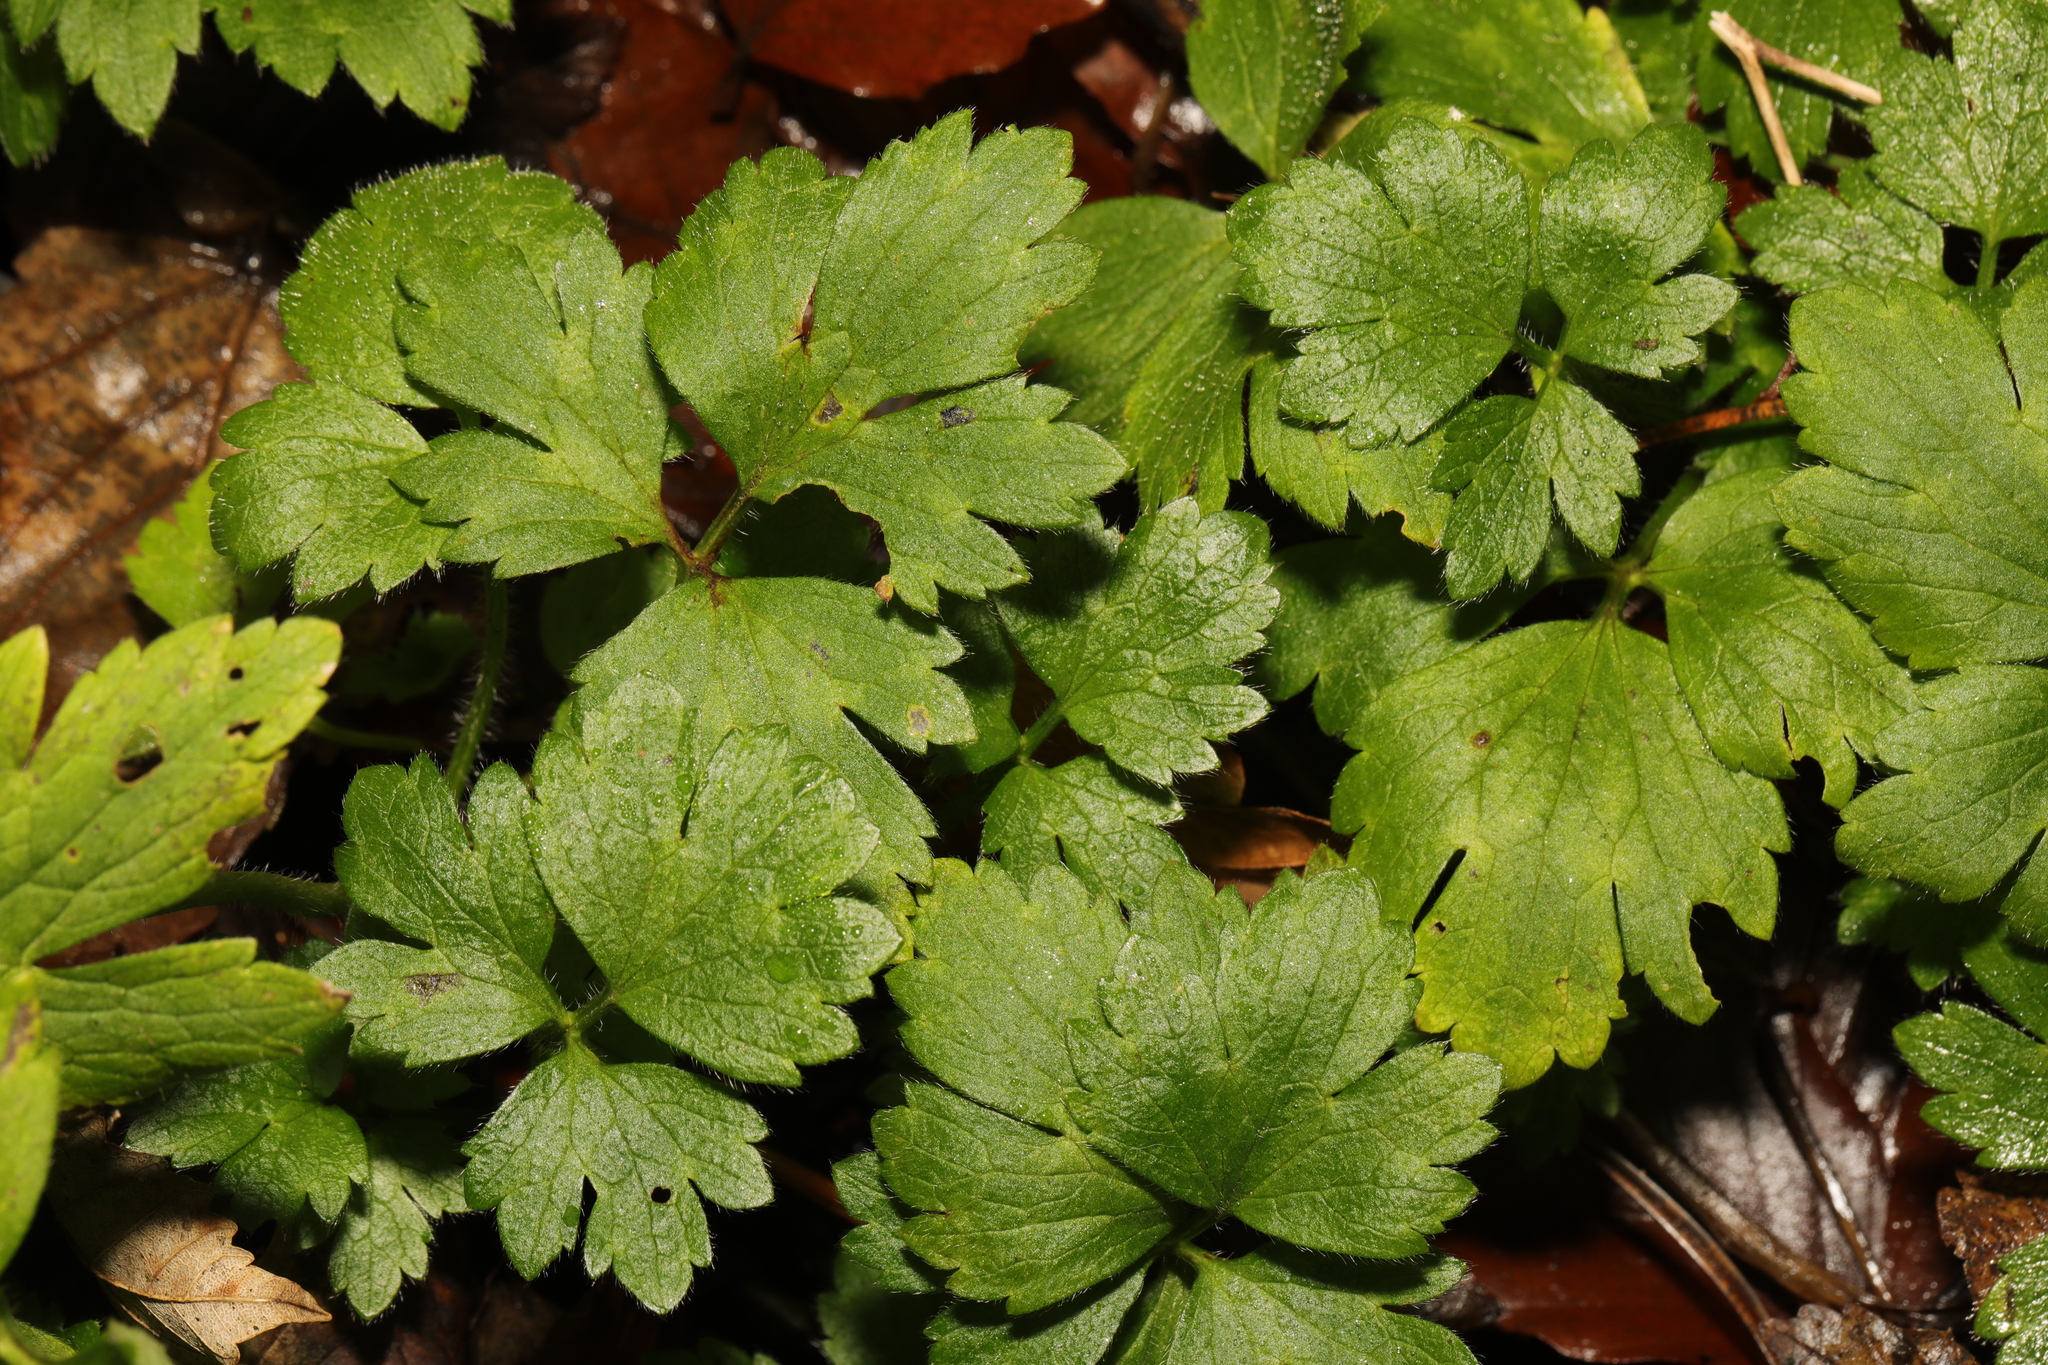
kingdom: Plantae
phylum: Tracheophyta
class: Magnoliopsida
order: Ranunculales
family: Ranunculaceae
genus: Ranunculus
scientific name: Ranunculus repens
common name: Creeping buttercup
